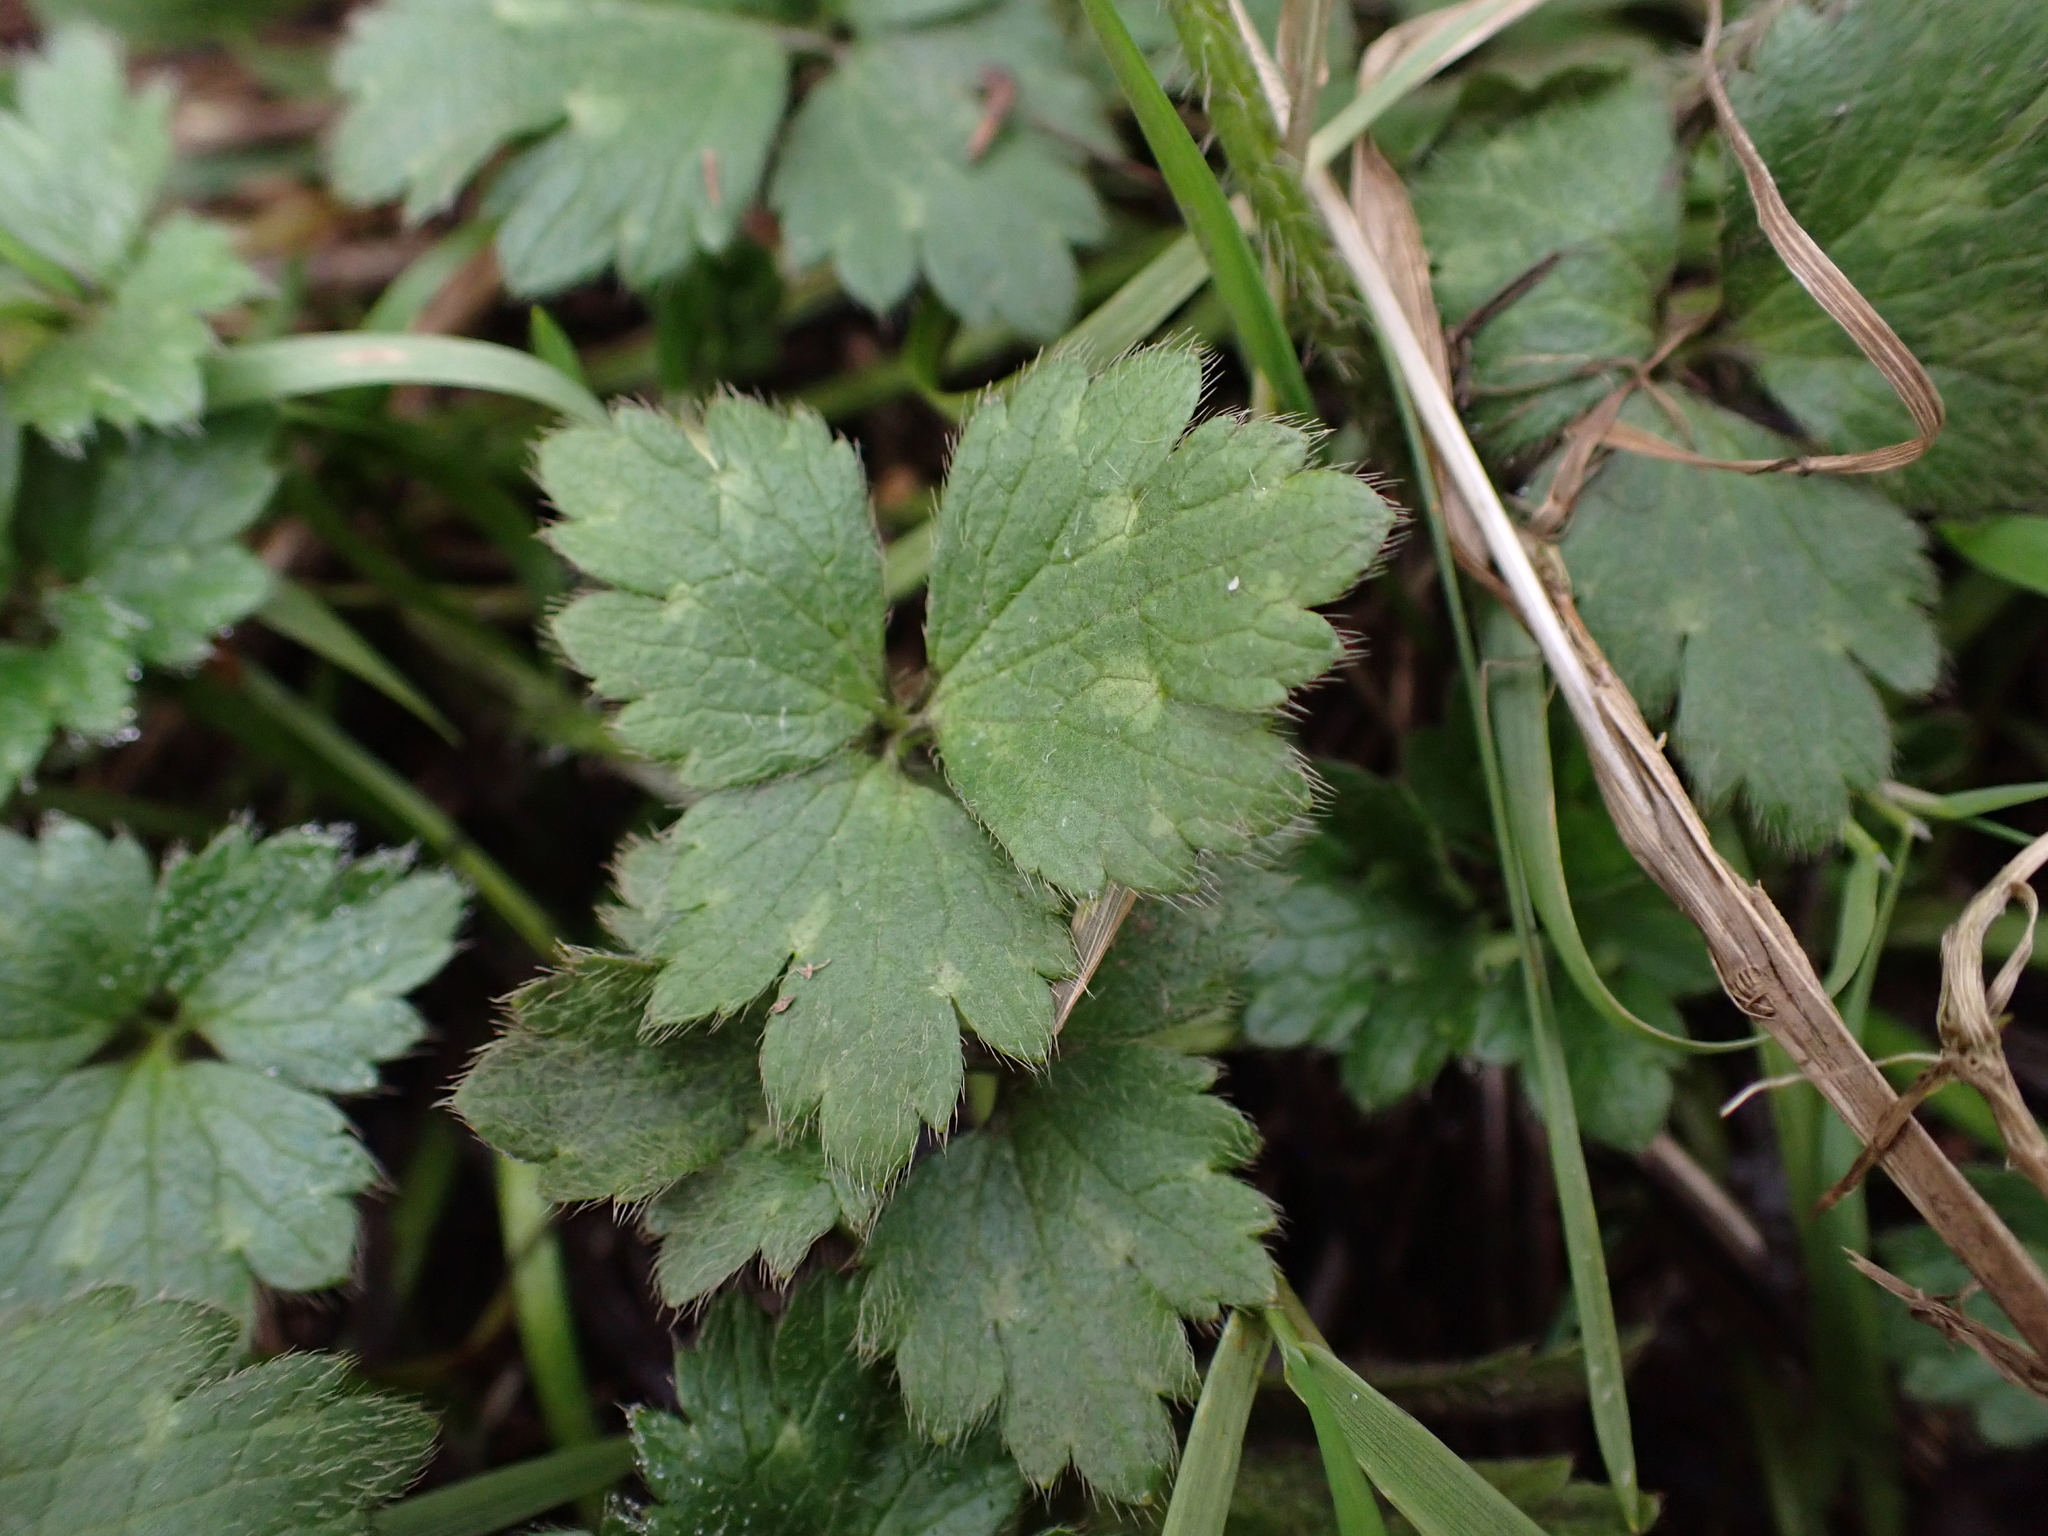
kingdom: Plantae
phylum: Tracheophyta
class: Magnoliopsida
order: Ranunculales
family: Ranunculaceae
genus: Ranunculus
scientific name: Ranunculus repens
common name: Creeping buttercup
